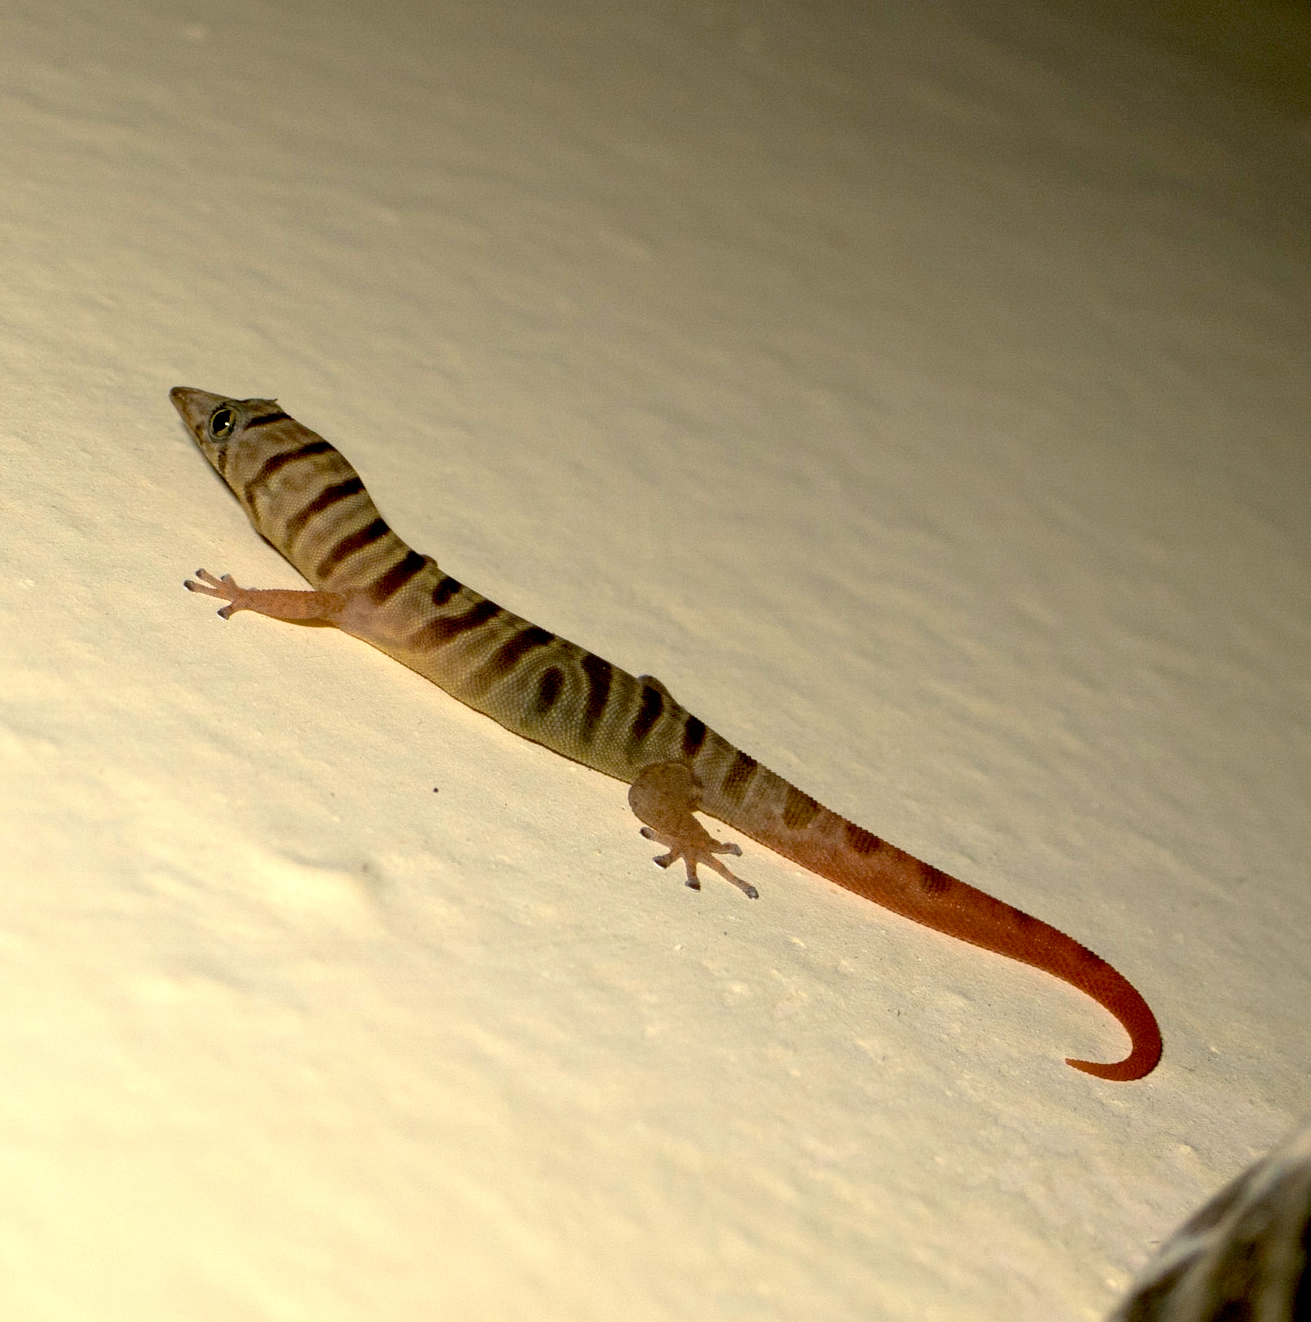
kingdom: Animalia
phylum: Chordata
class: Squamata
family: Sphaerodactylidae
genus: Sphaerodactylus
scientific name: Sphaerodactylus elegans
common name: Ashy gecko
